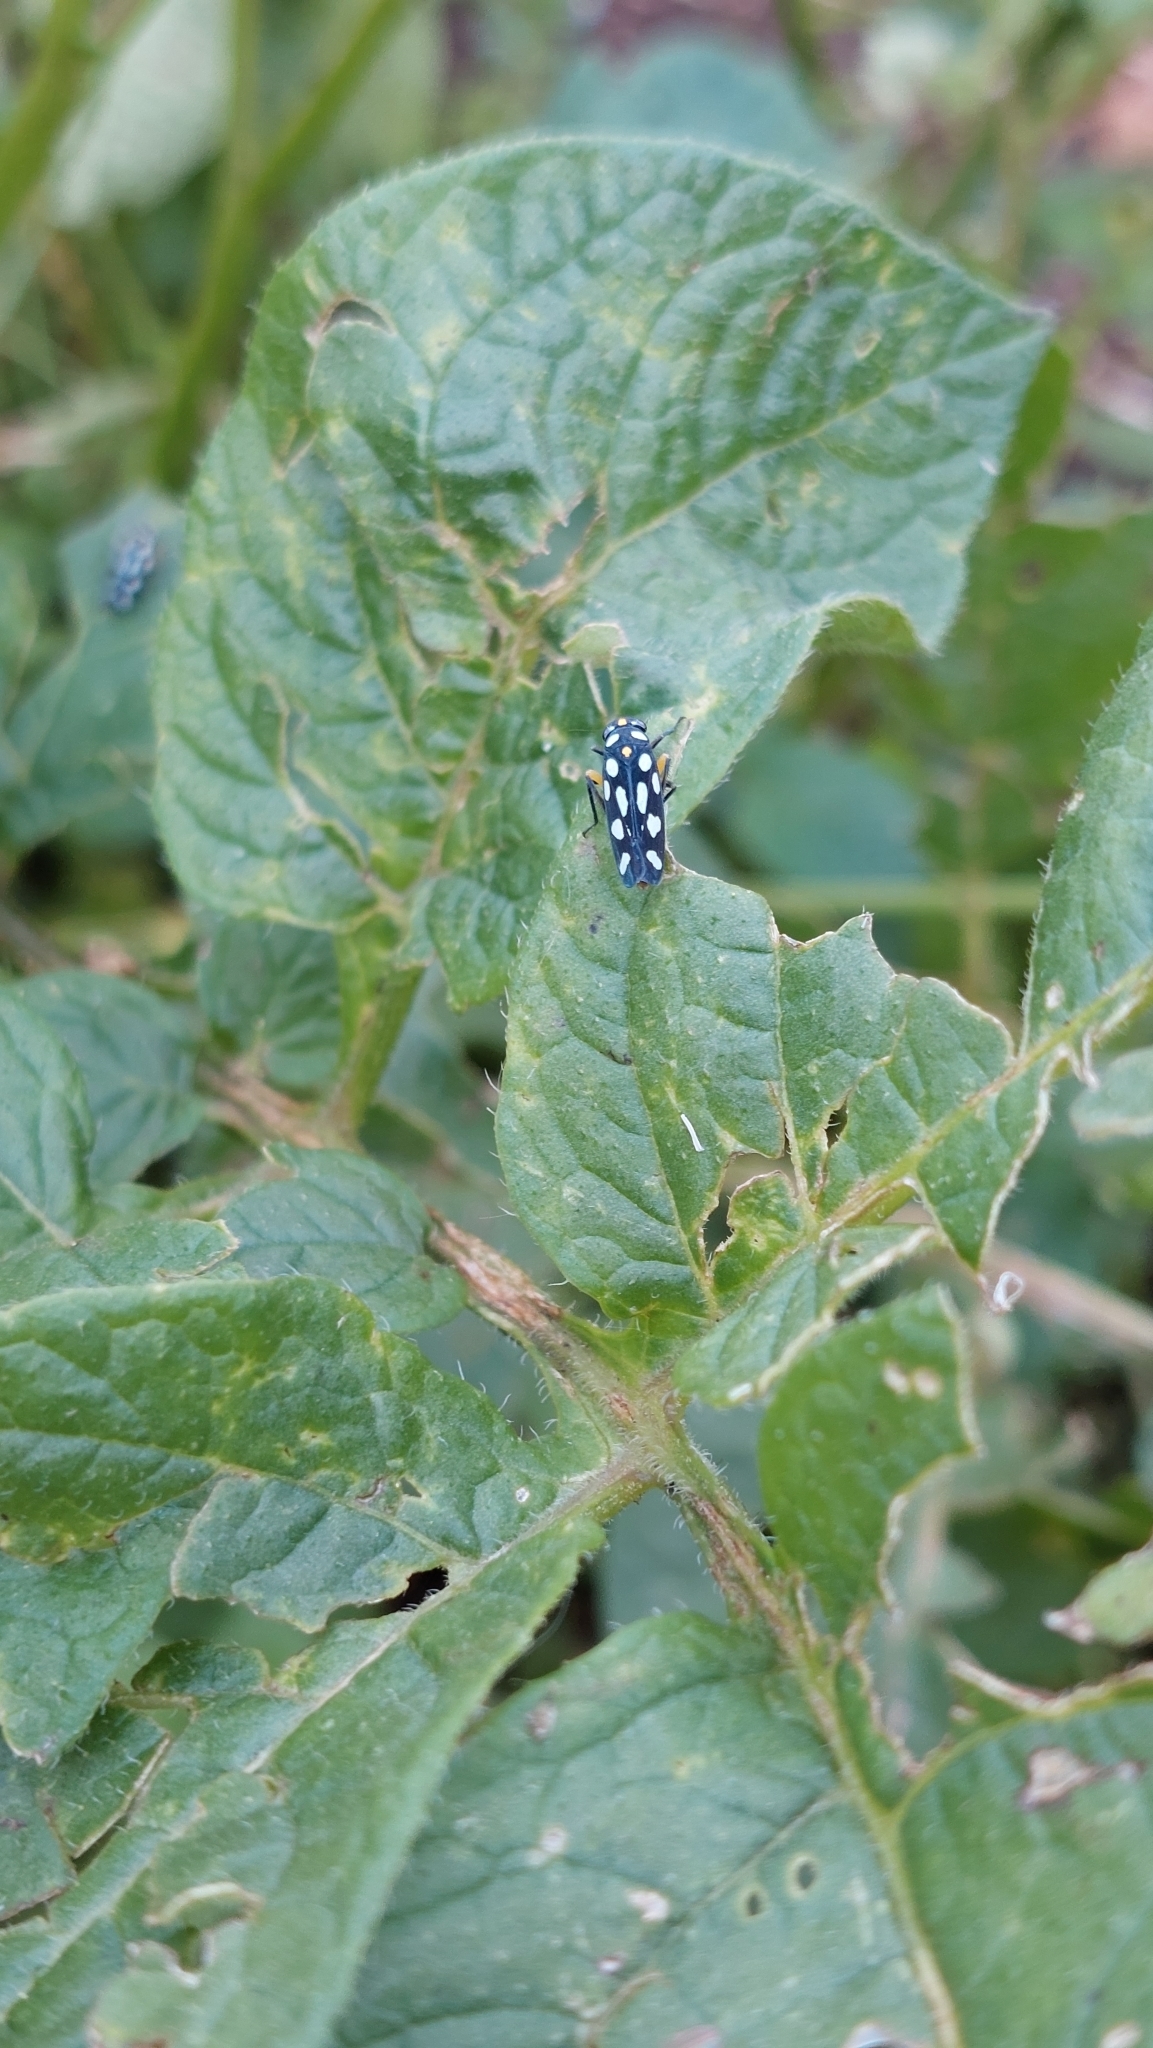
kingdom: Animalia
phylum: Arthropoda
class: Insecta
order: Hemiptera
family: Cicadellidae
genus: Stehlikiana
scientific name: Stehlikiana crassa
